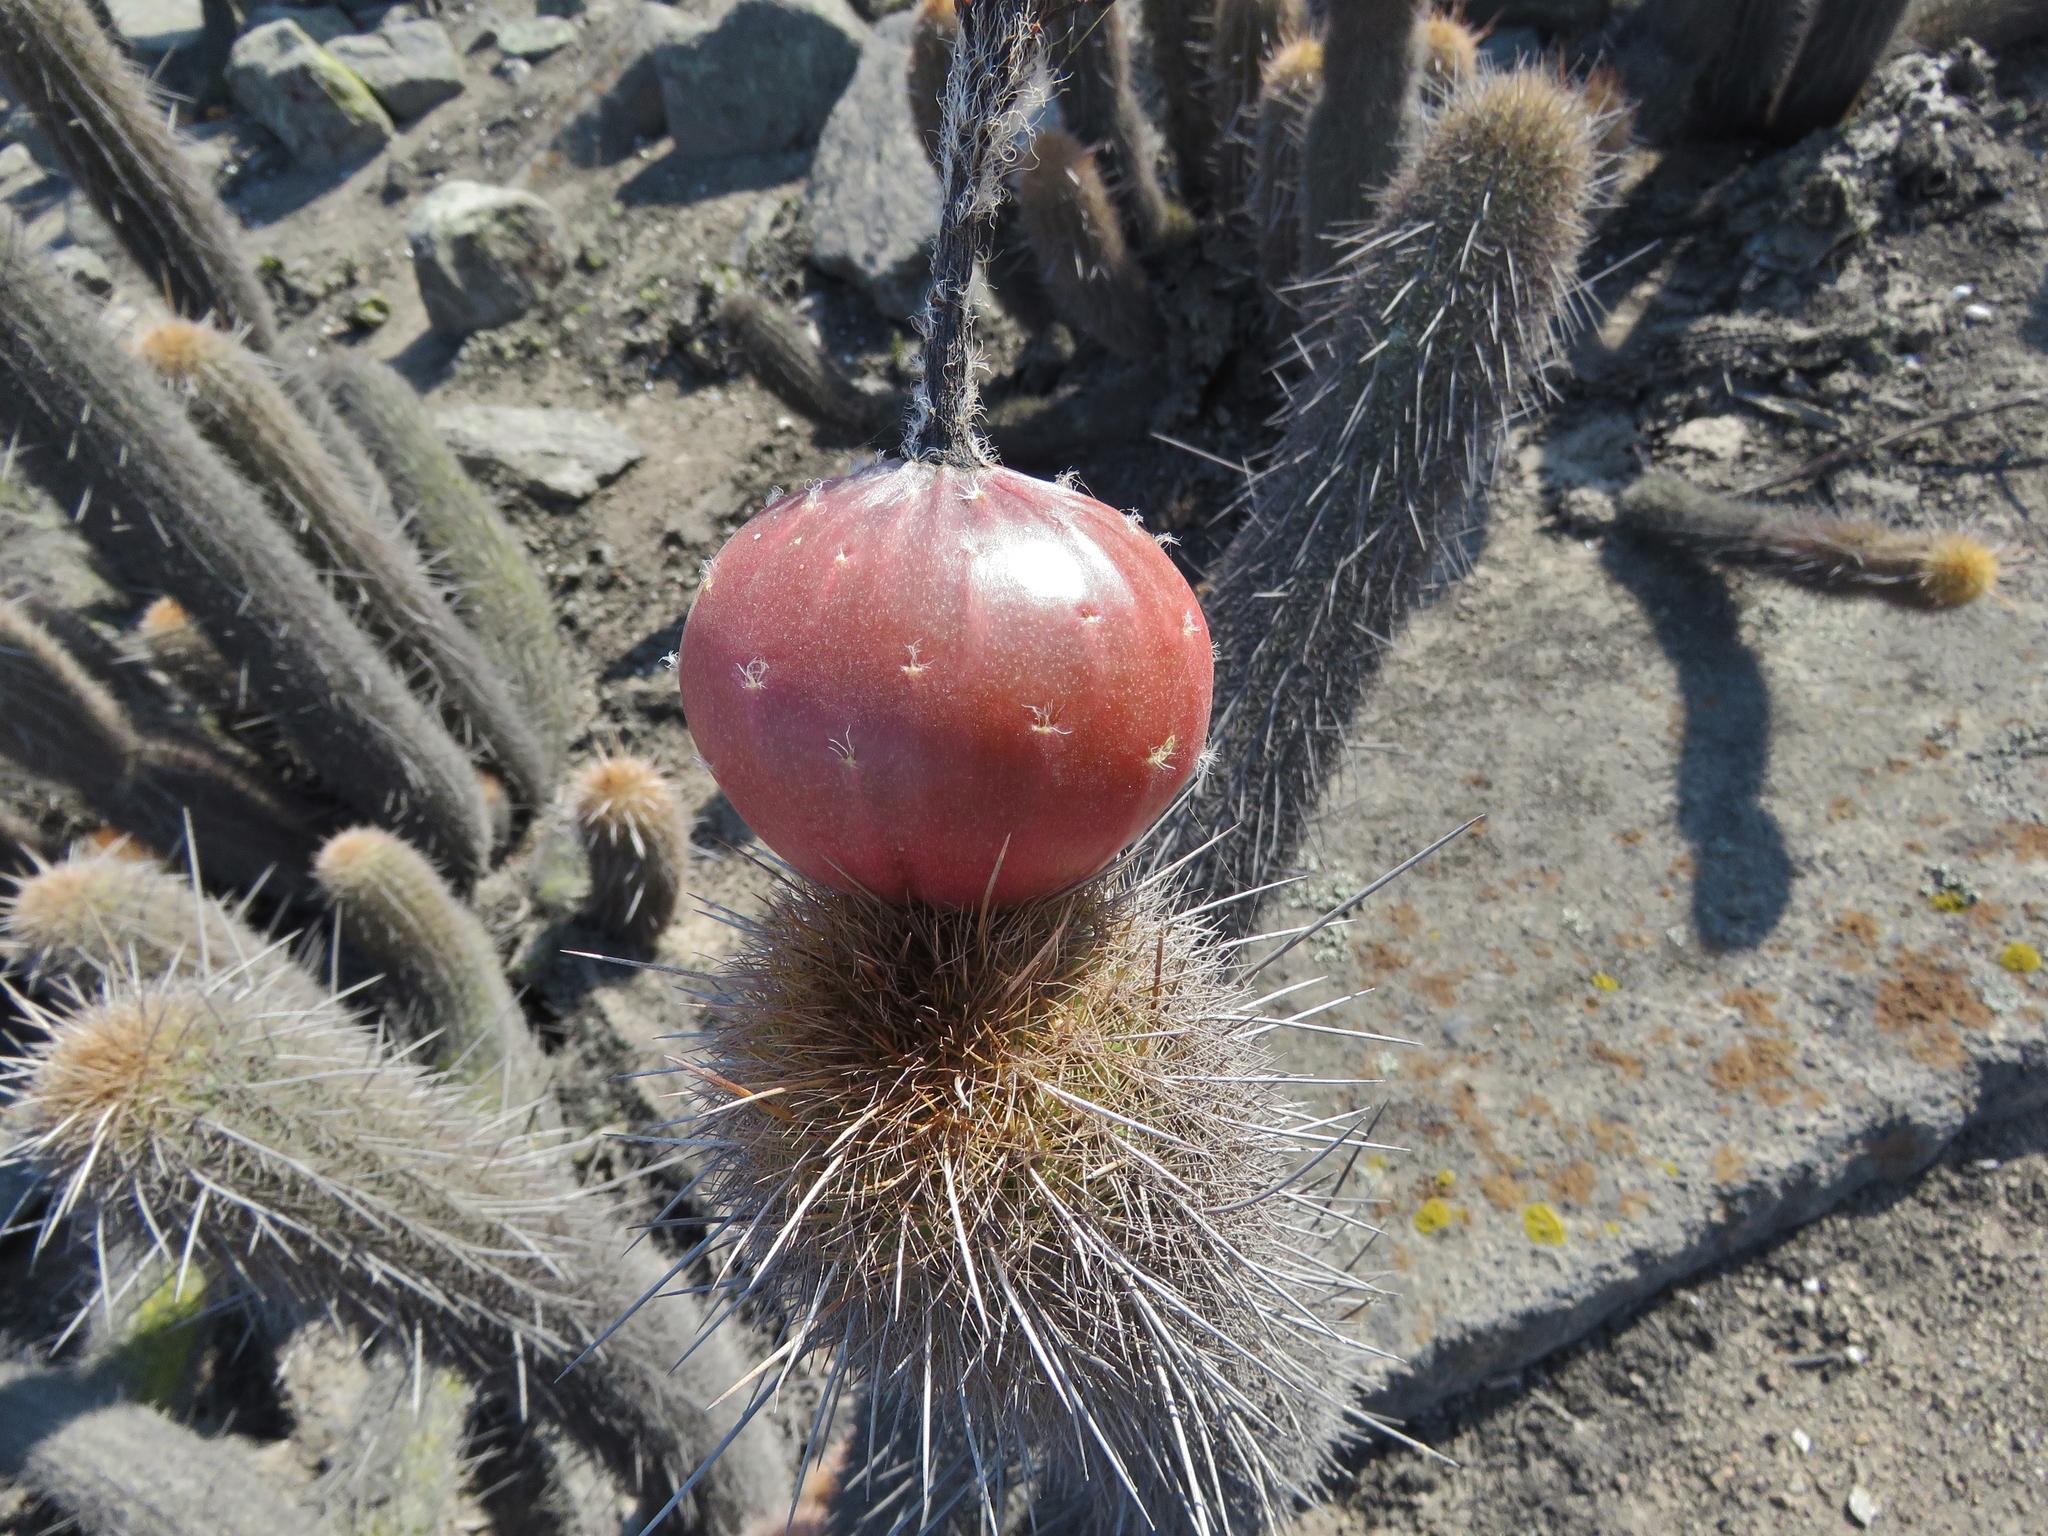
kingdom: Plantae
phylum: Tracheophyta
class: Magnoliopsida
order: Caryophyllales
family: Cactaceae
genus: Haageocereus
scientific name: Haageocereus pseudomelanostele
